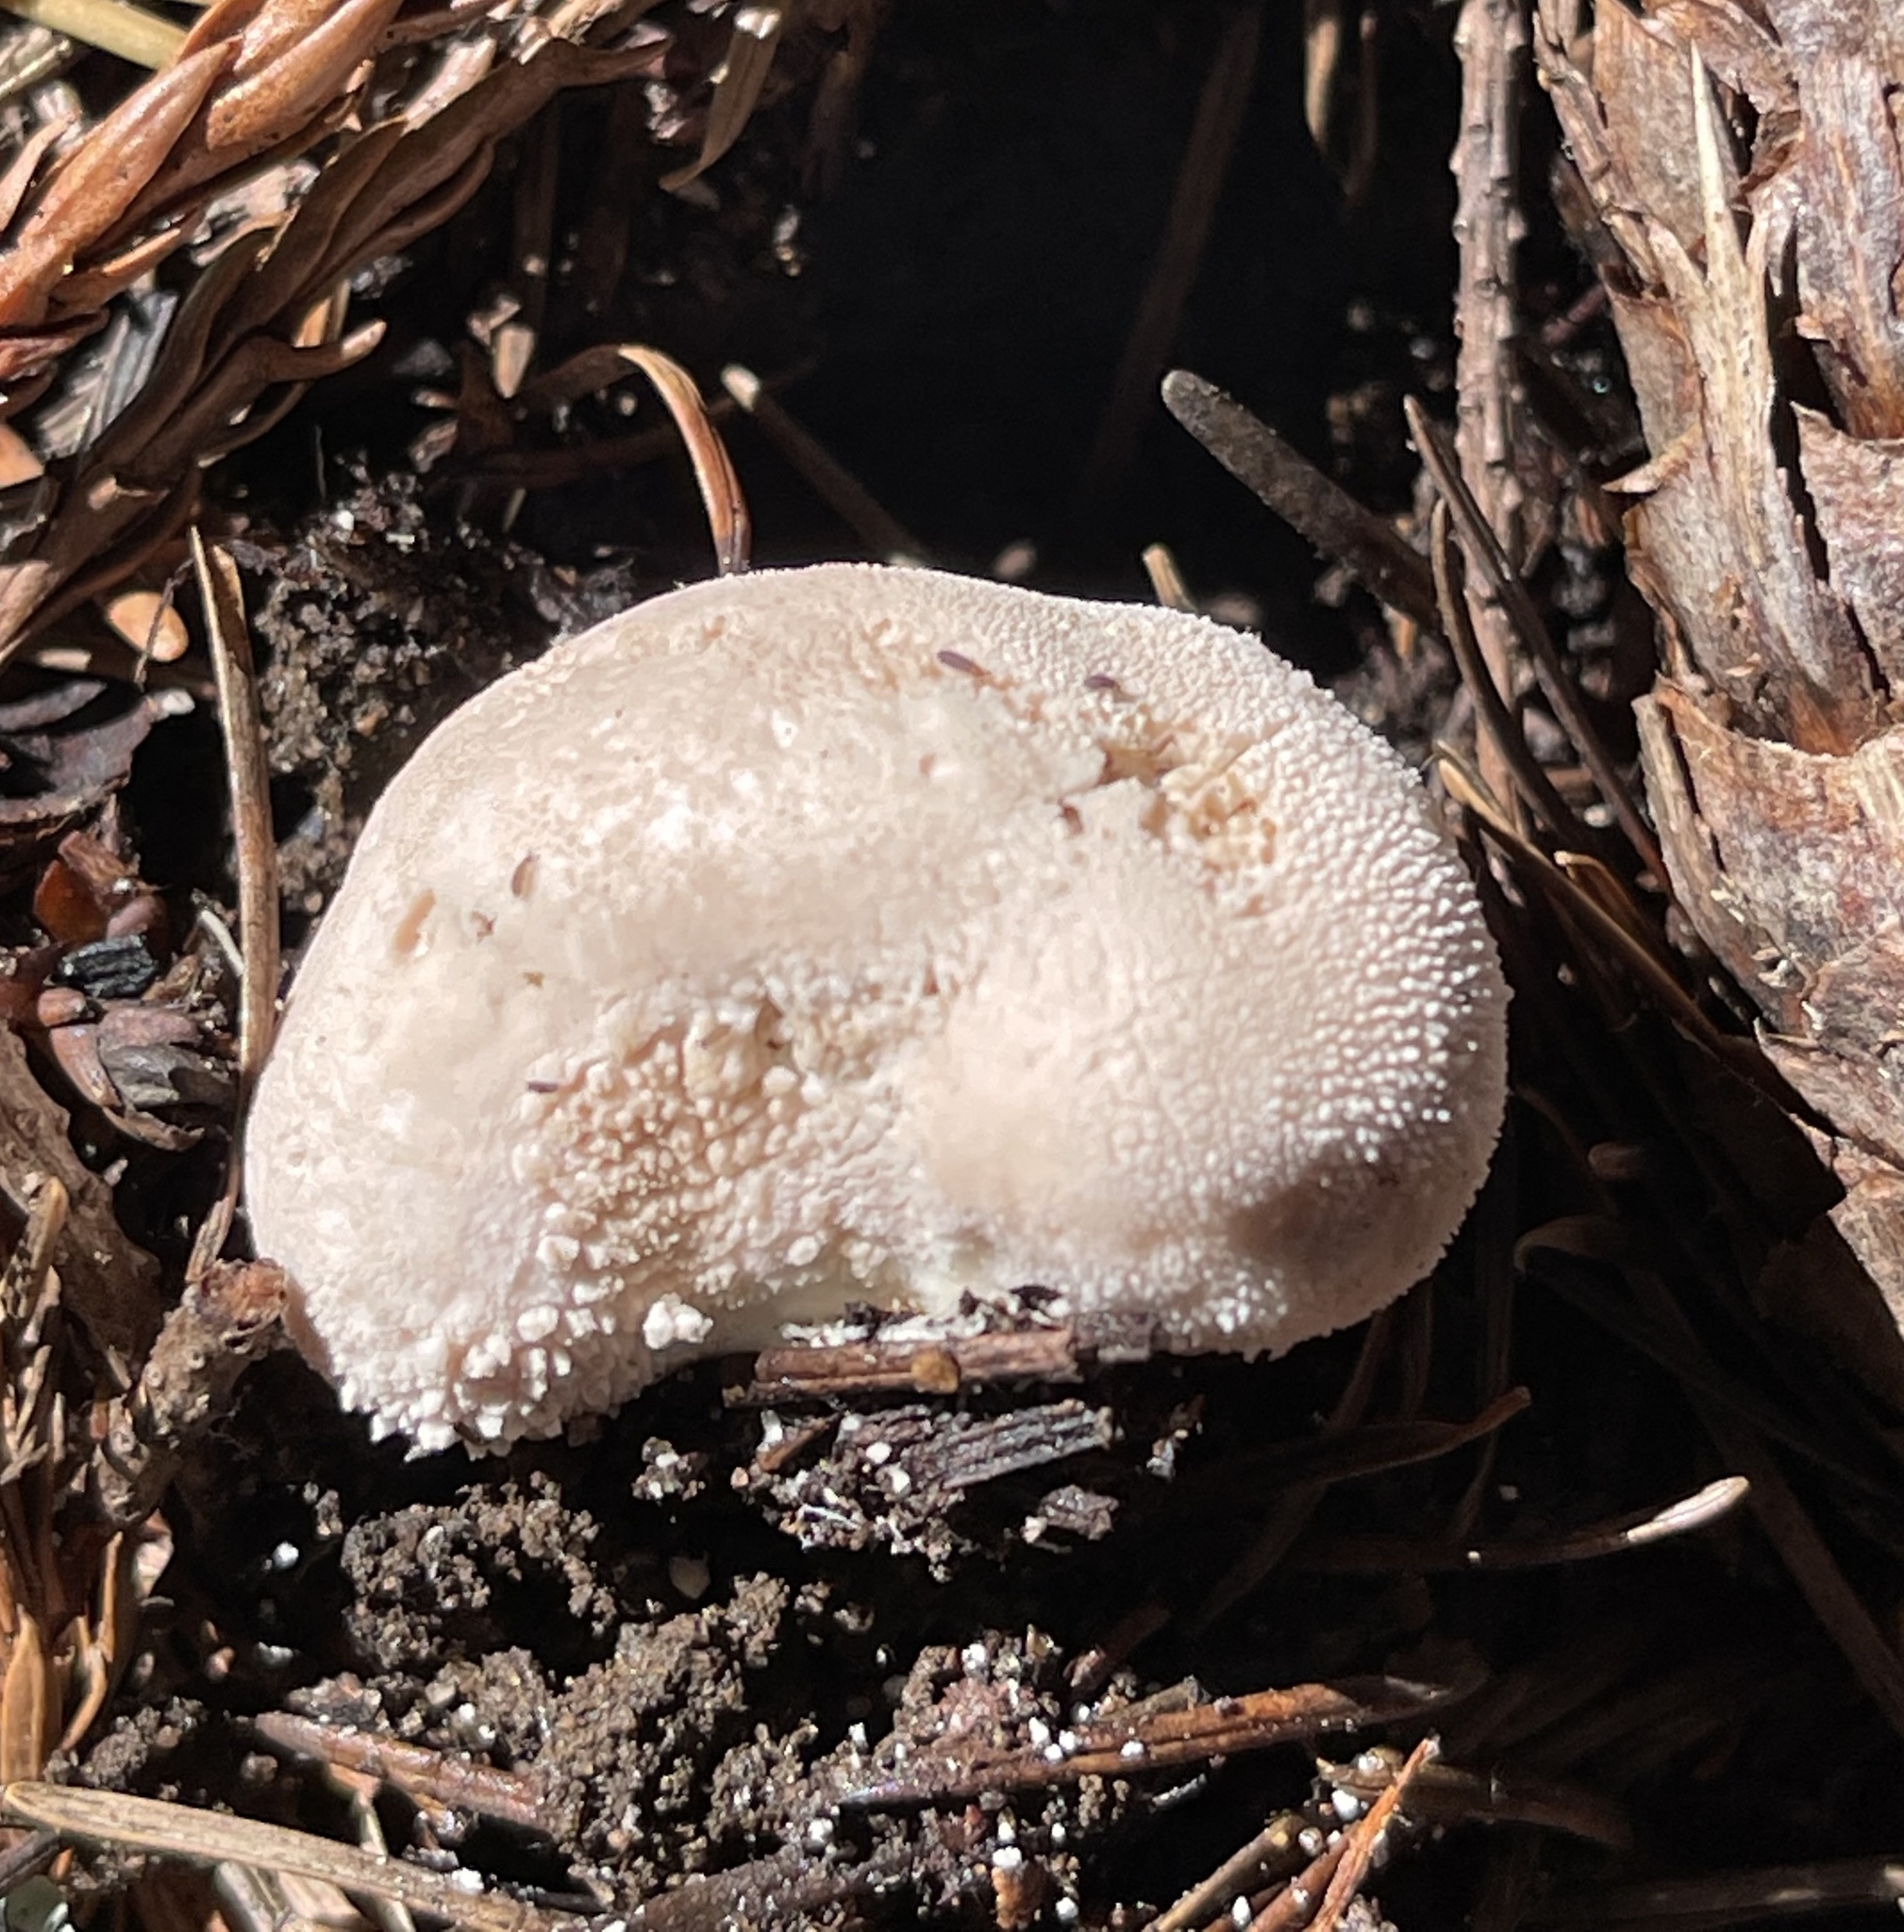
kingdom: Fungi
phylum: Basidiomycota
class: Agaricomycetes
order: Agaricales
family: Lycoperdaceae
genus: Lycoperdon
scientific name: Lycoperdon perlatum
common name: Common puffball
